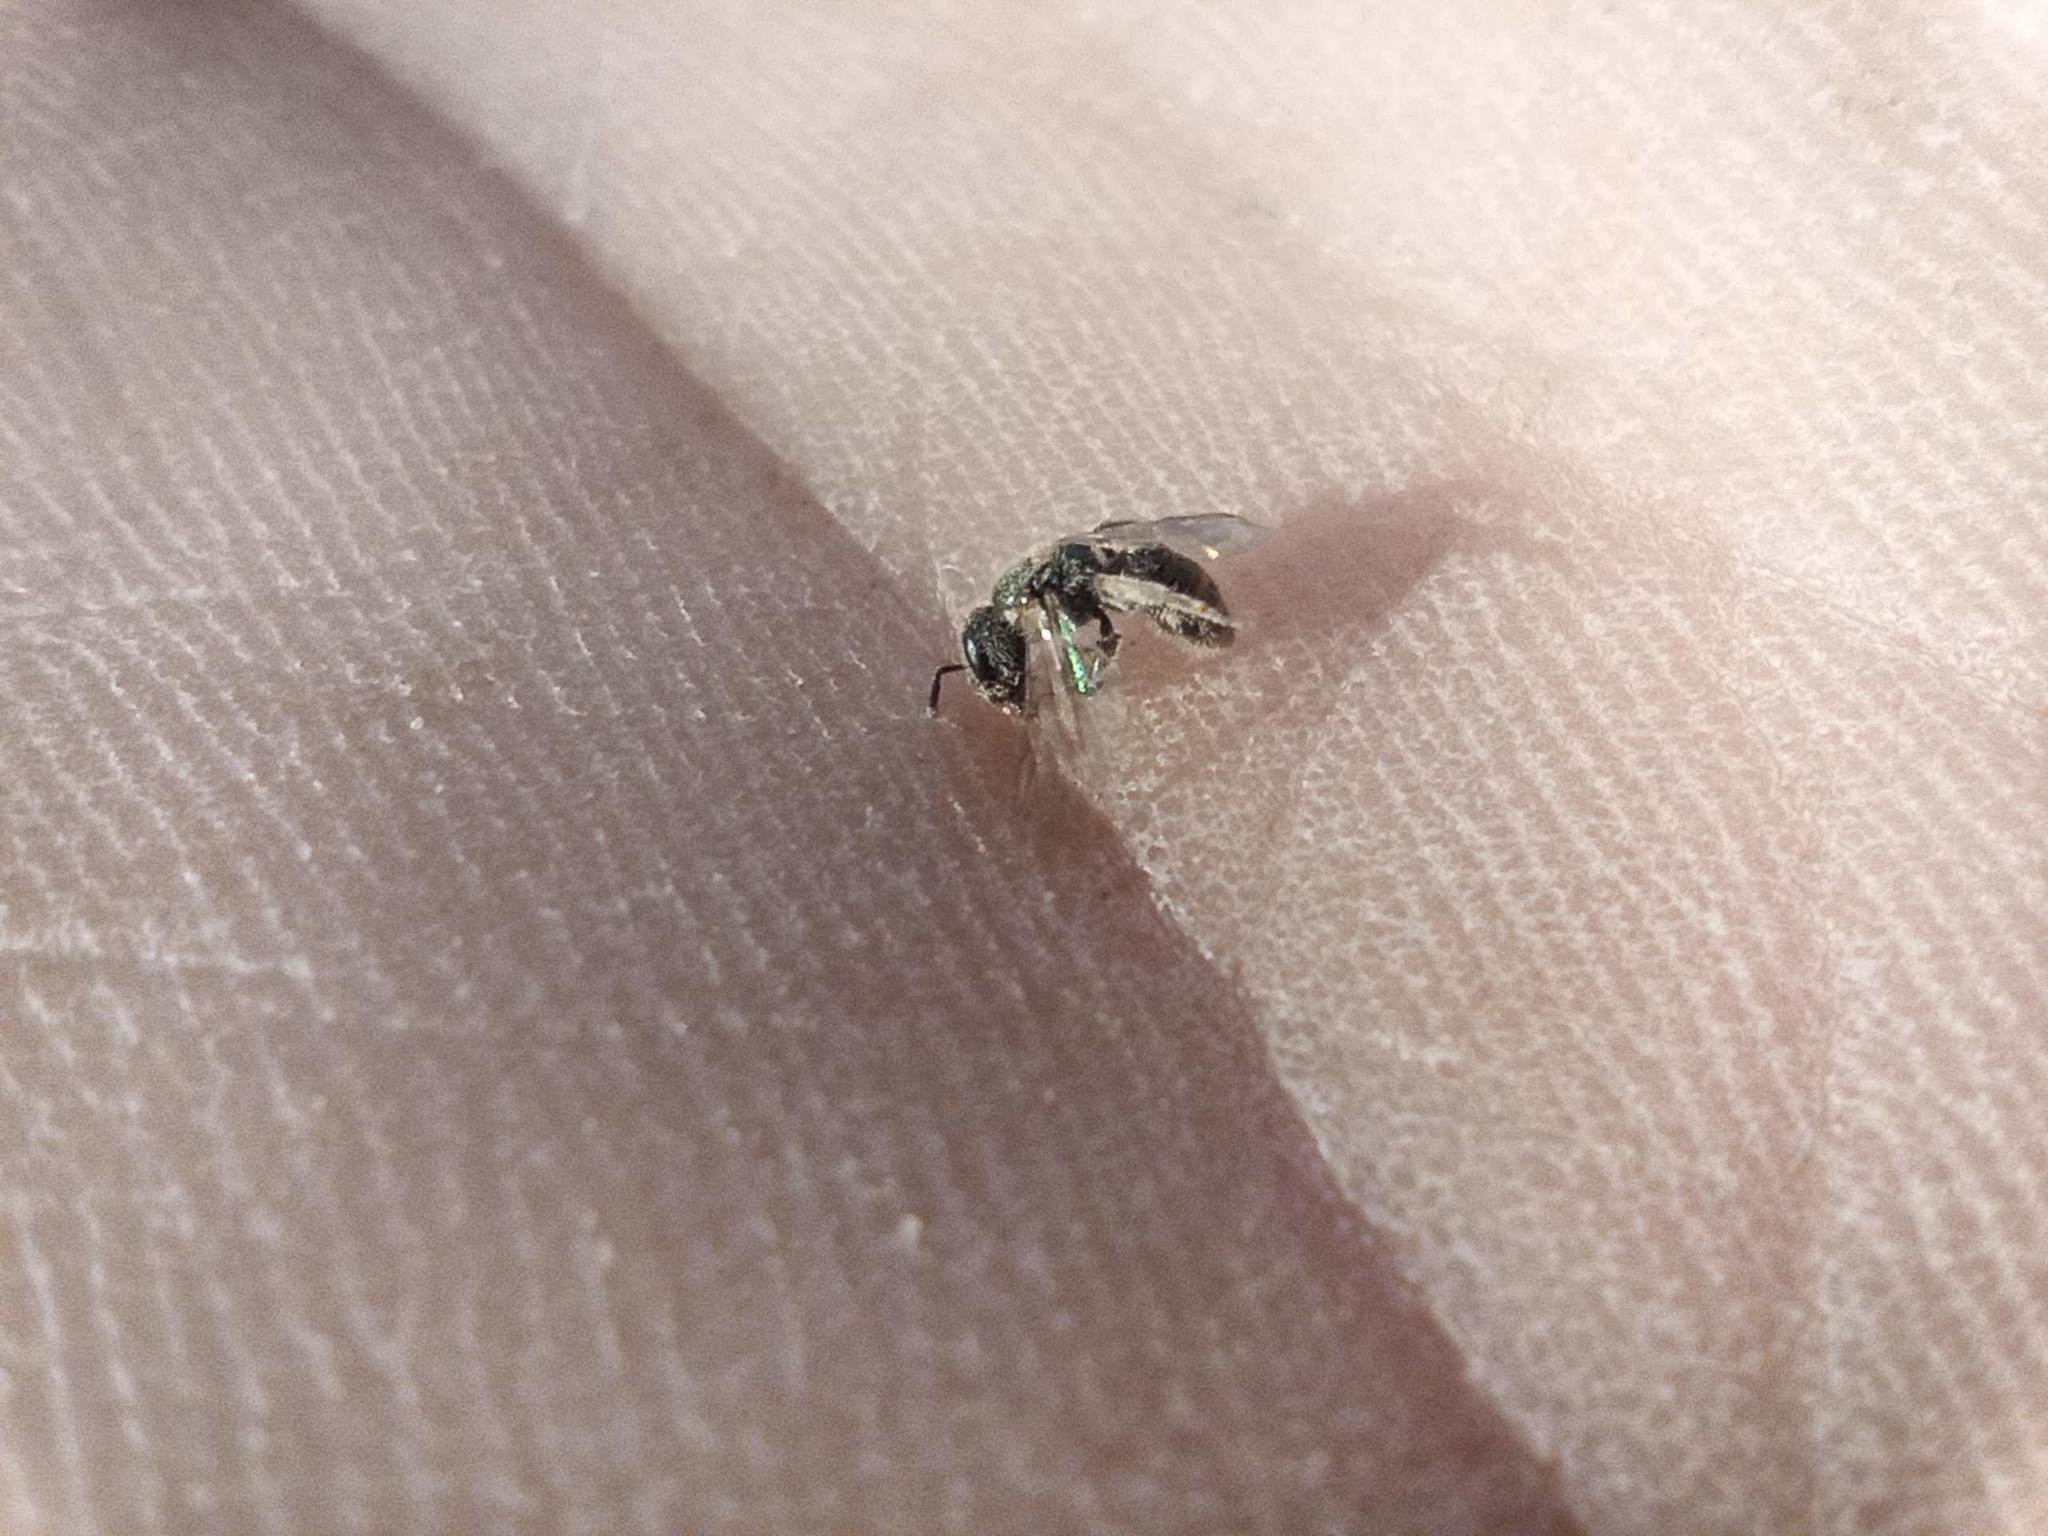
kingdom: Animalia
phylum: Arthropoda
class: Insecta
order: Hymenoptera
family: Halictidae
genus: Lasioglossum
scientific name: Lasioglossum collopiense
